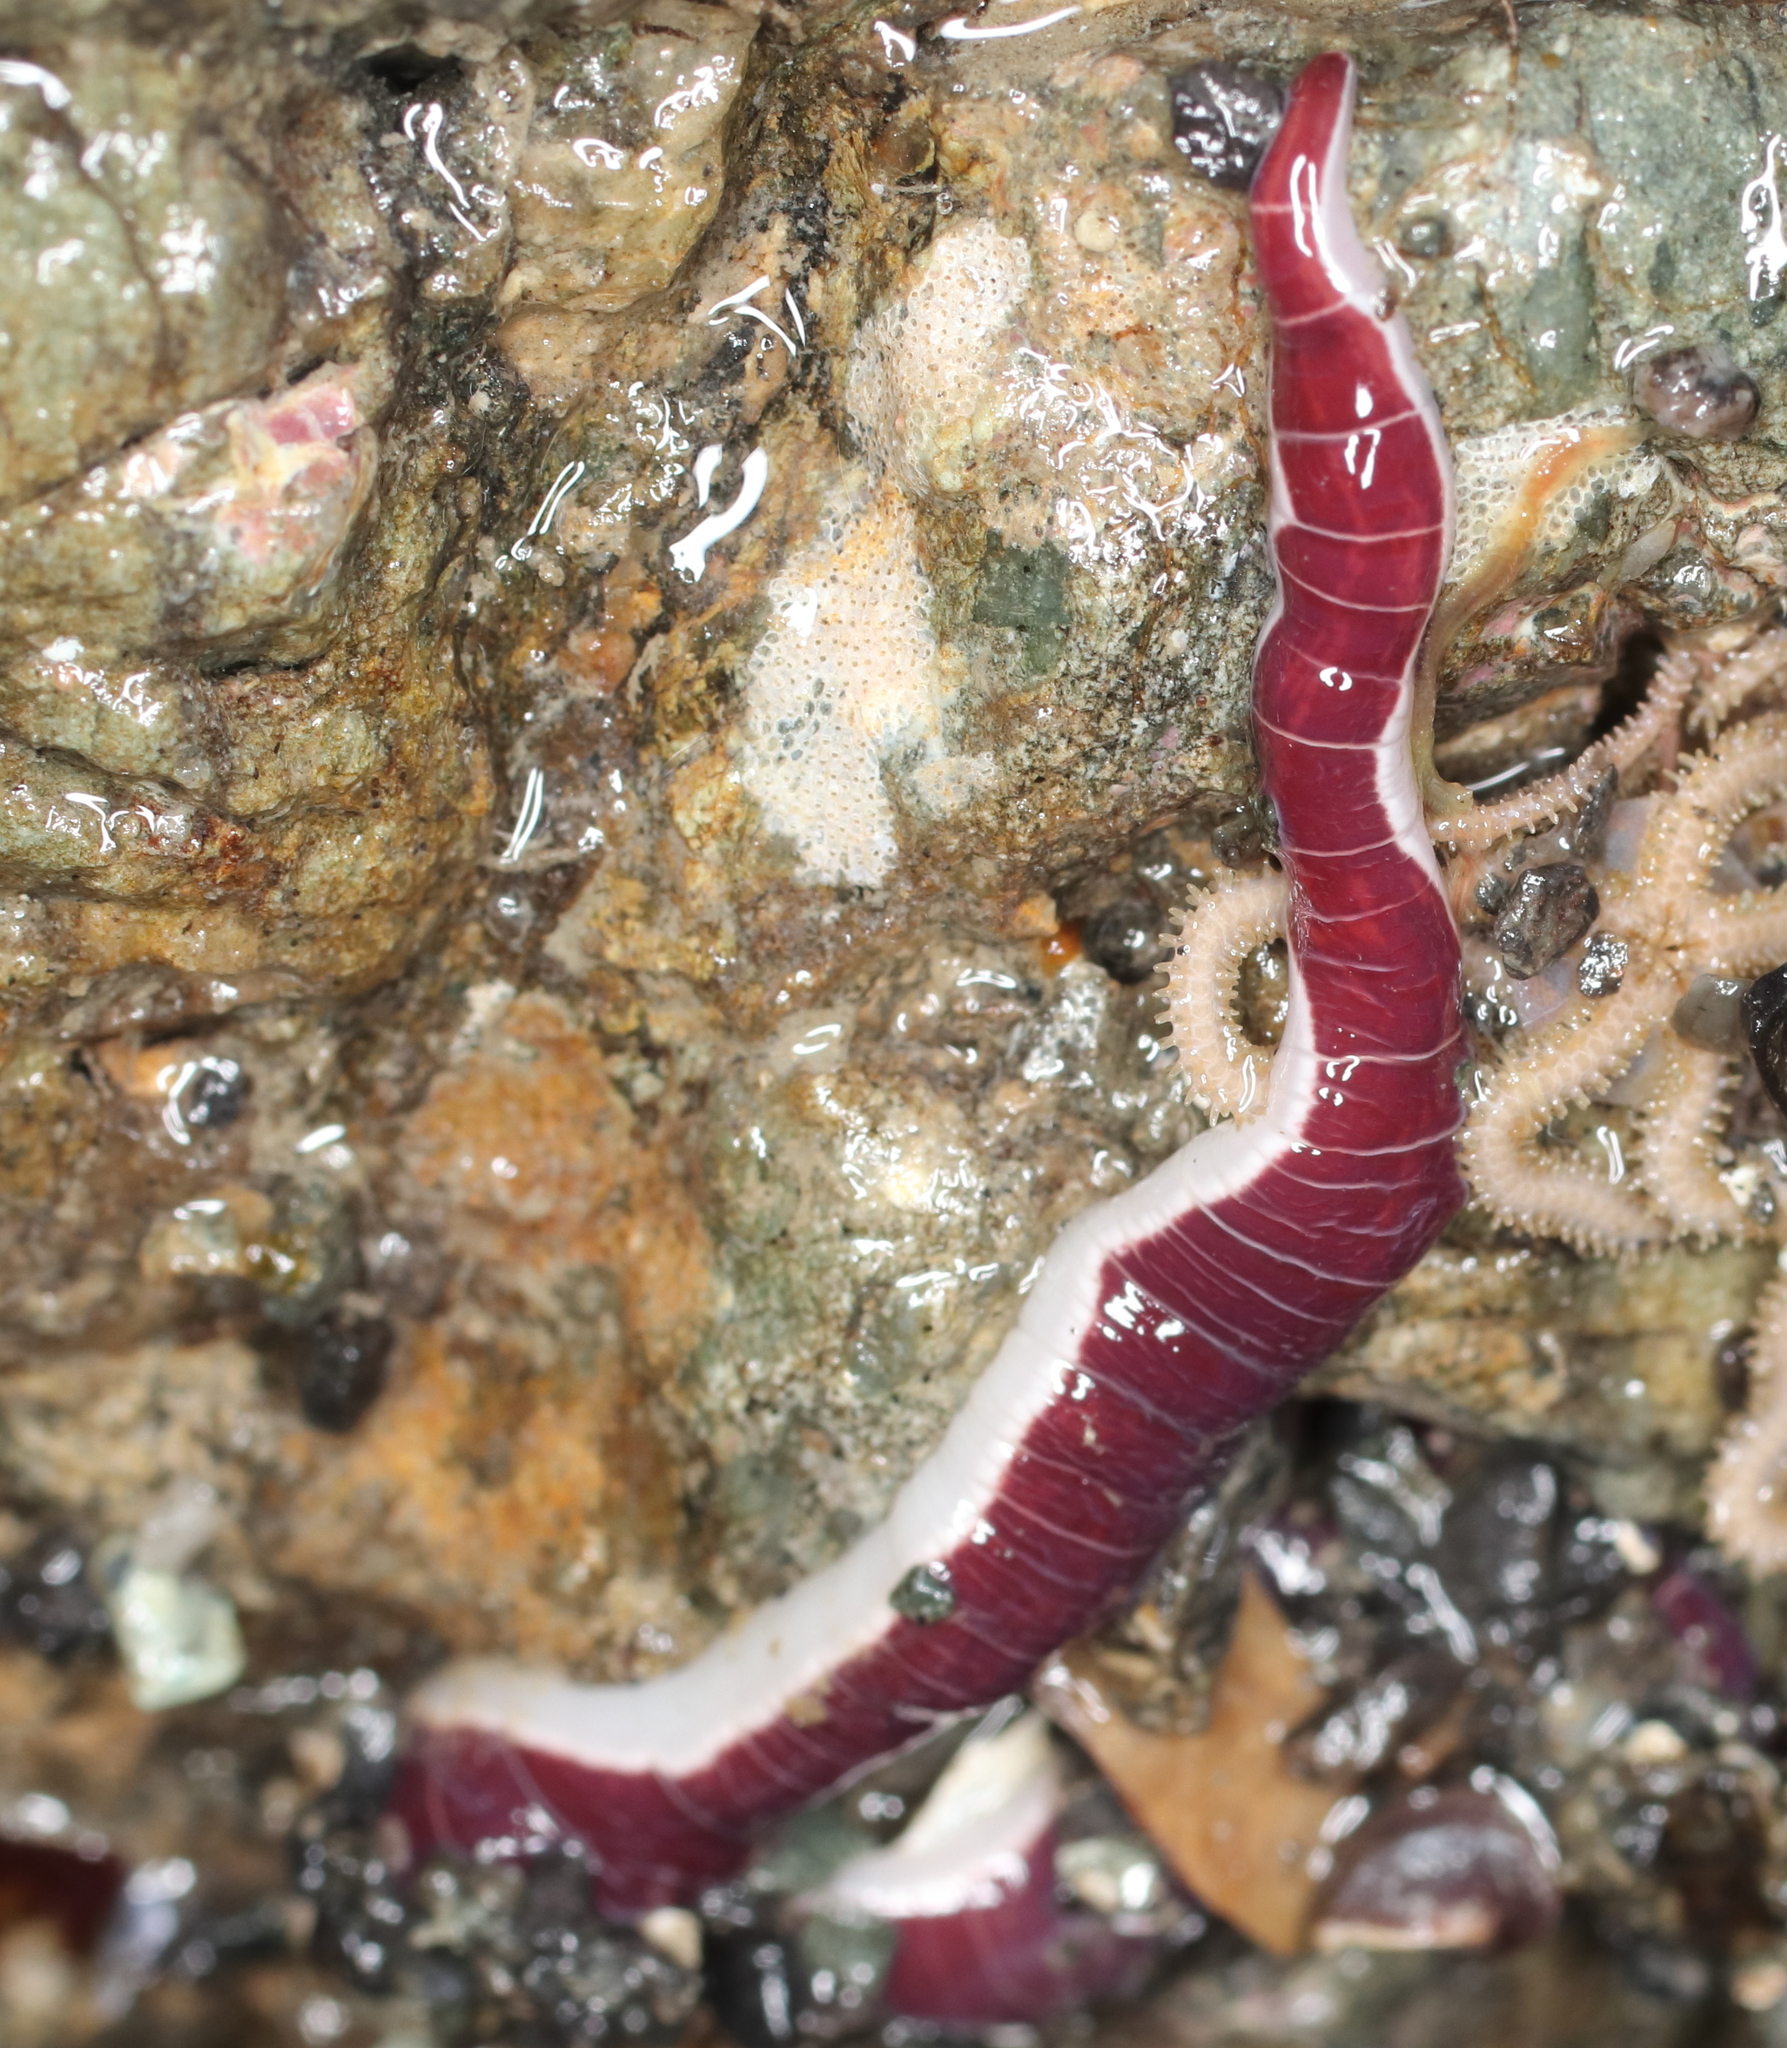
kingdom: Animalia
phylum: Nemertea
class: Pilidiophora
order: Heteronemertea
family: Lineidae
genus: Micrura
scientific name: Micrura verrilli
